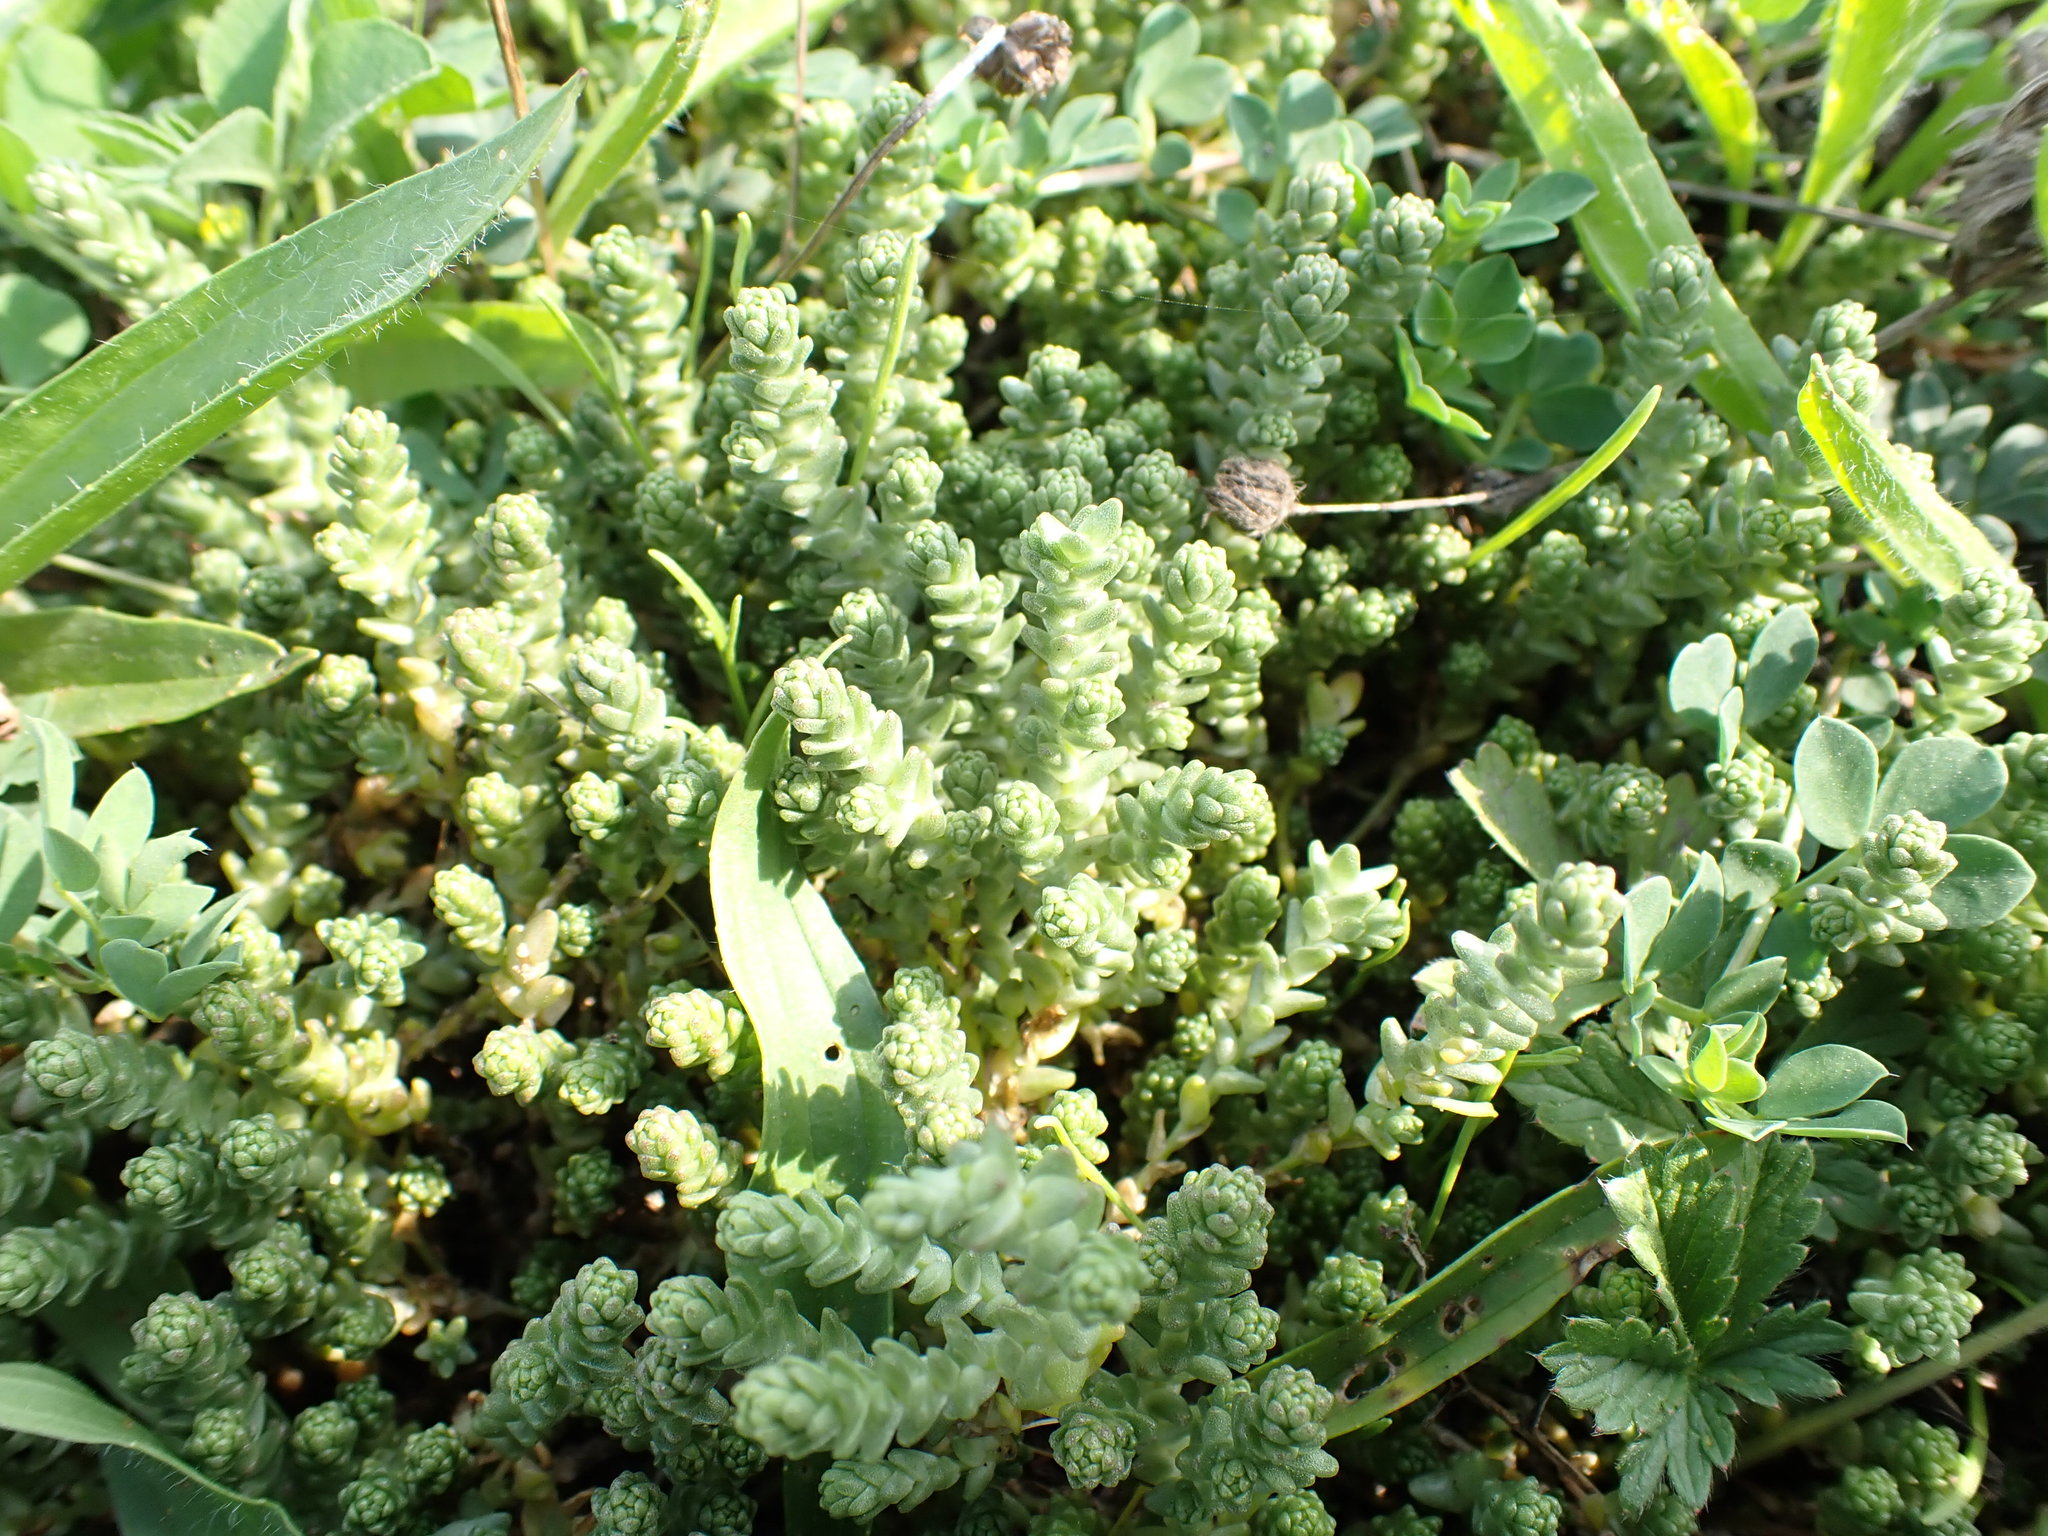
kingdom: Plantae
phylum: Tracheophyta
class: Magnoliopsida
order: Saxifragales
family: Crassulaceae
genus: Sedum
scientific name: Sedum acre
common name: Biting stonecrop
